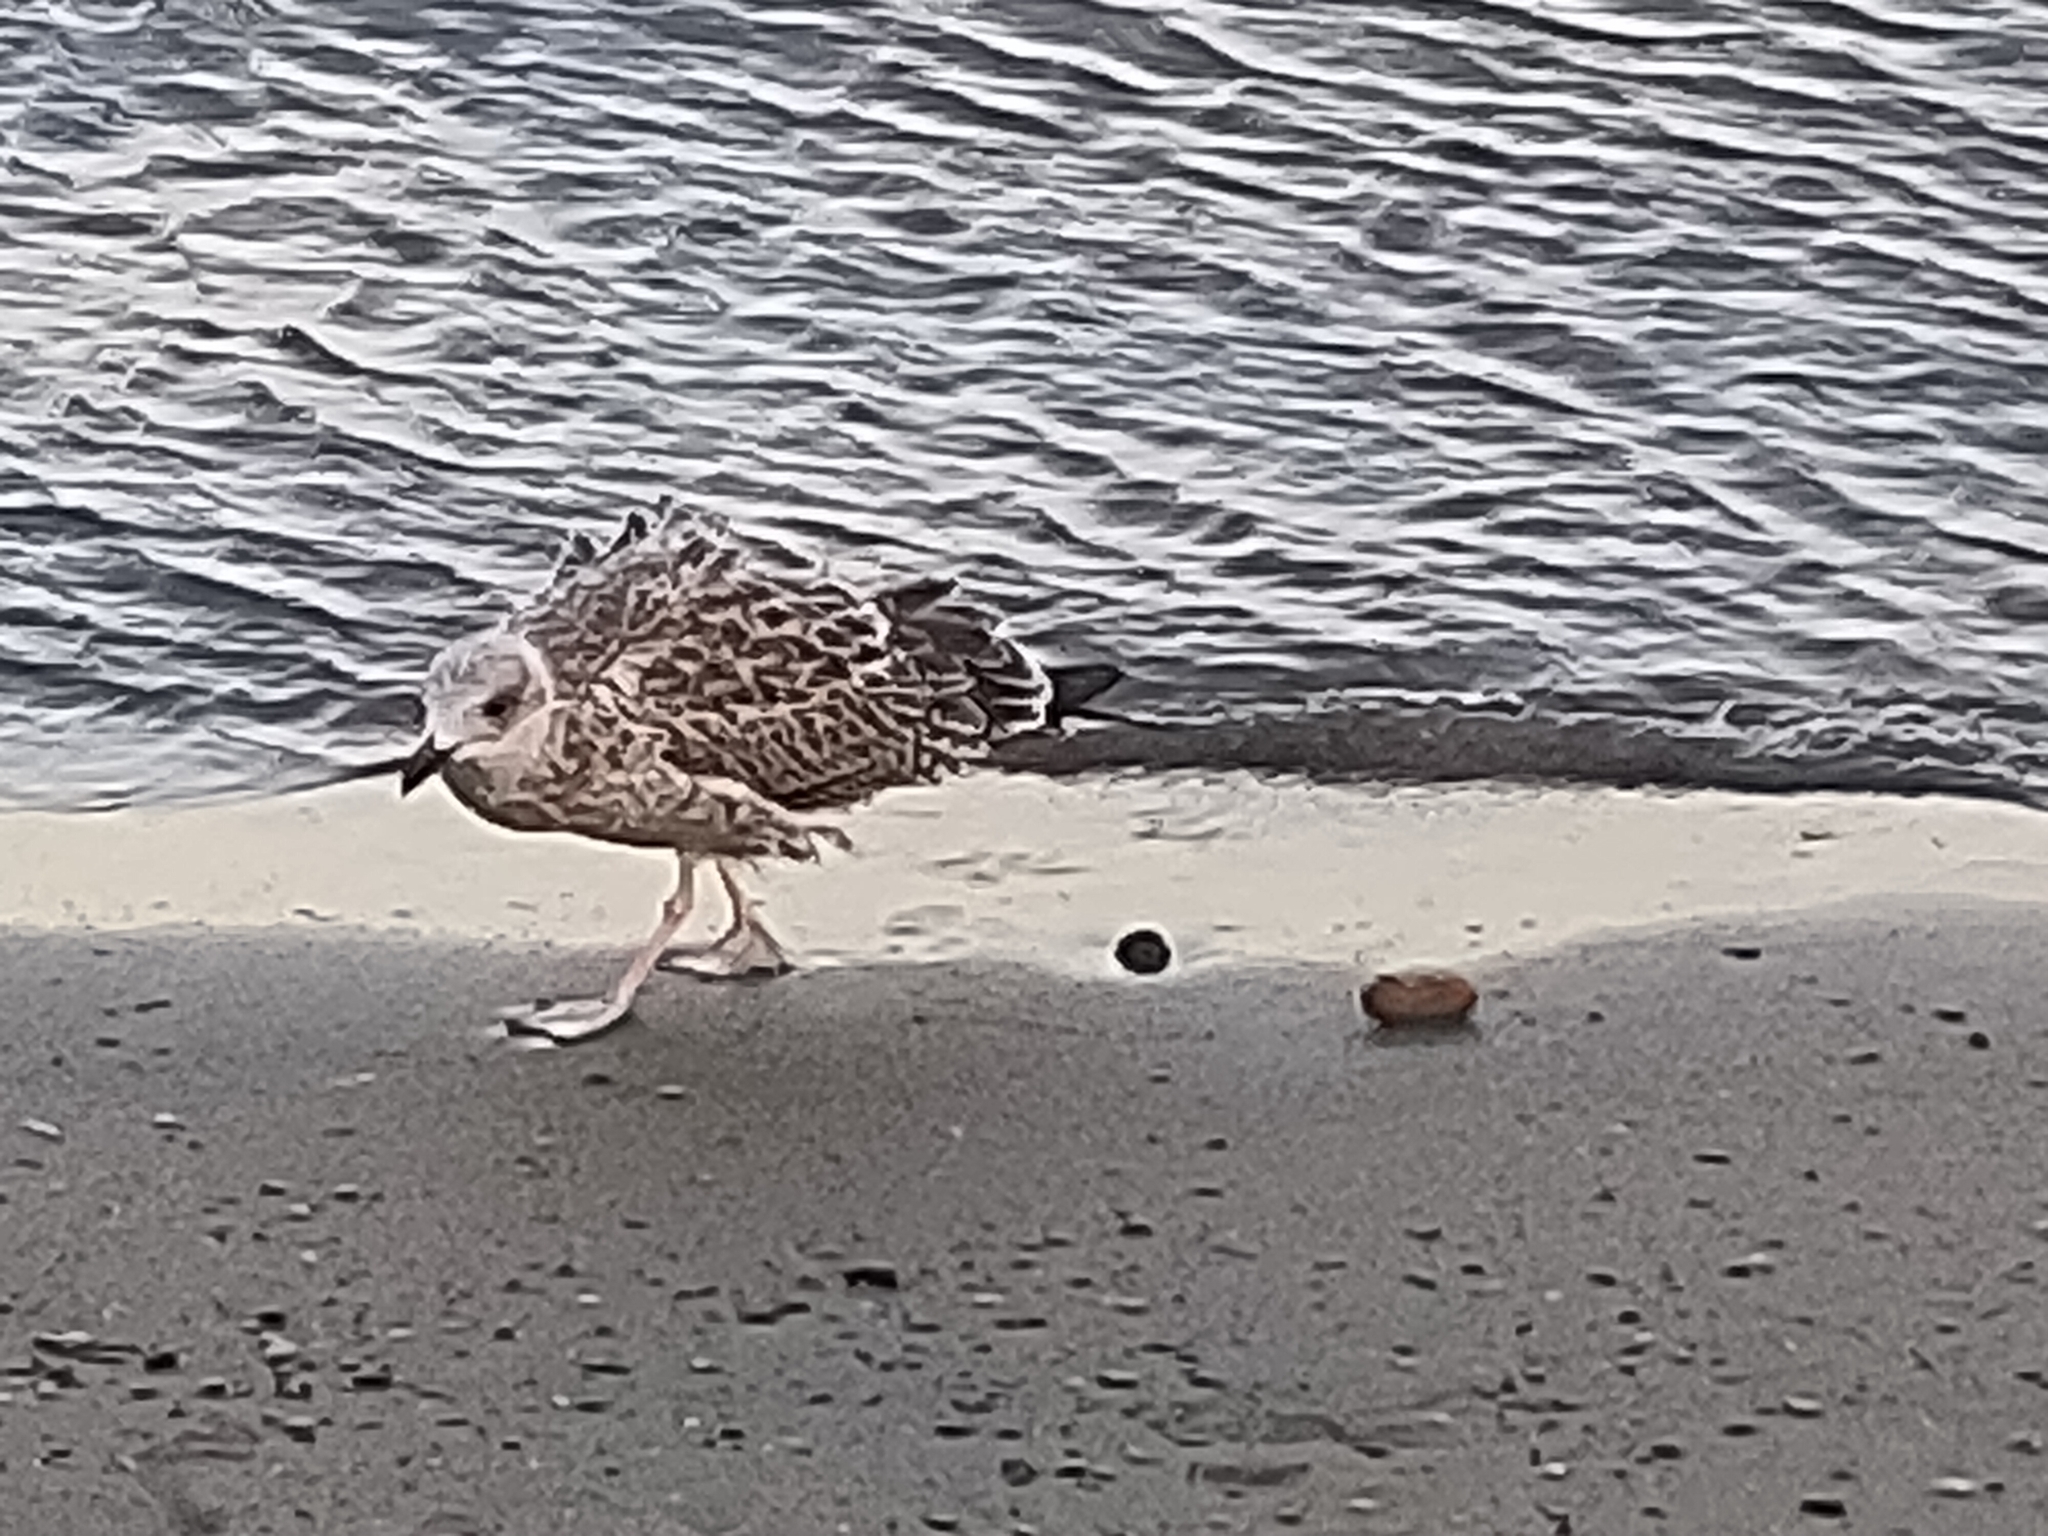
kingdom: Animalia
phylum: Chordata
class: Aves
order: Charadriiformes
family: Laridae
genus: Larus
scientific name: Larus michahellis
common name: Yellow-legged gull
